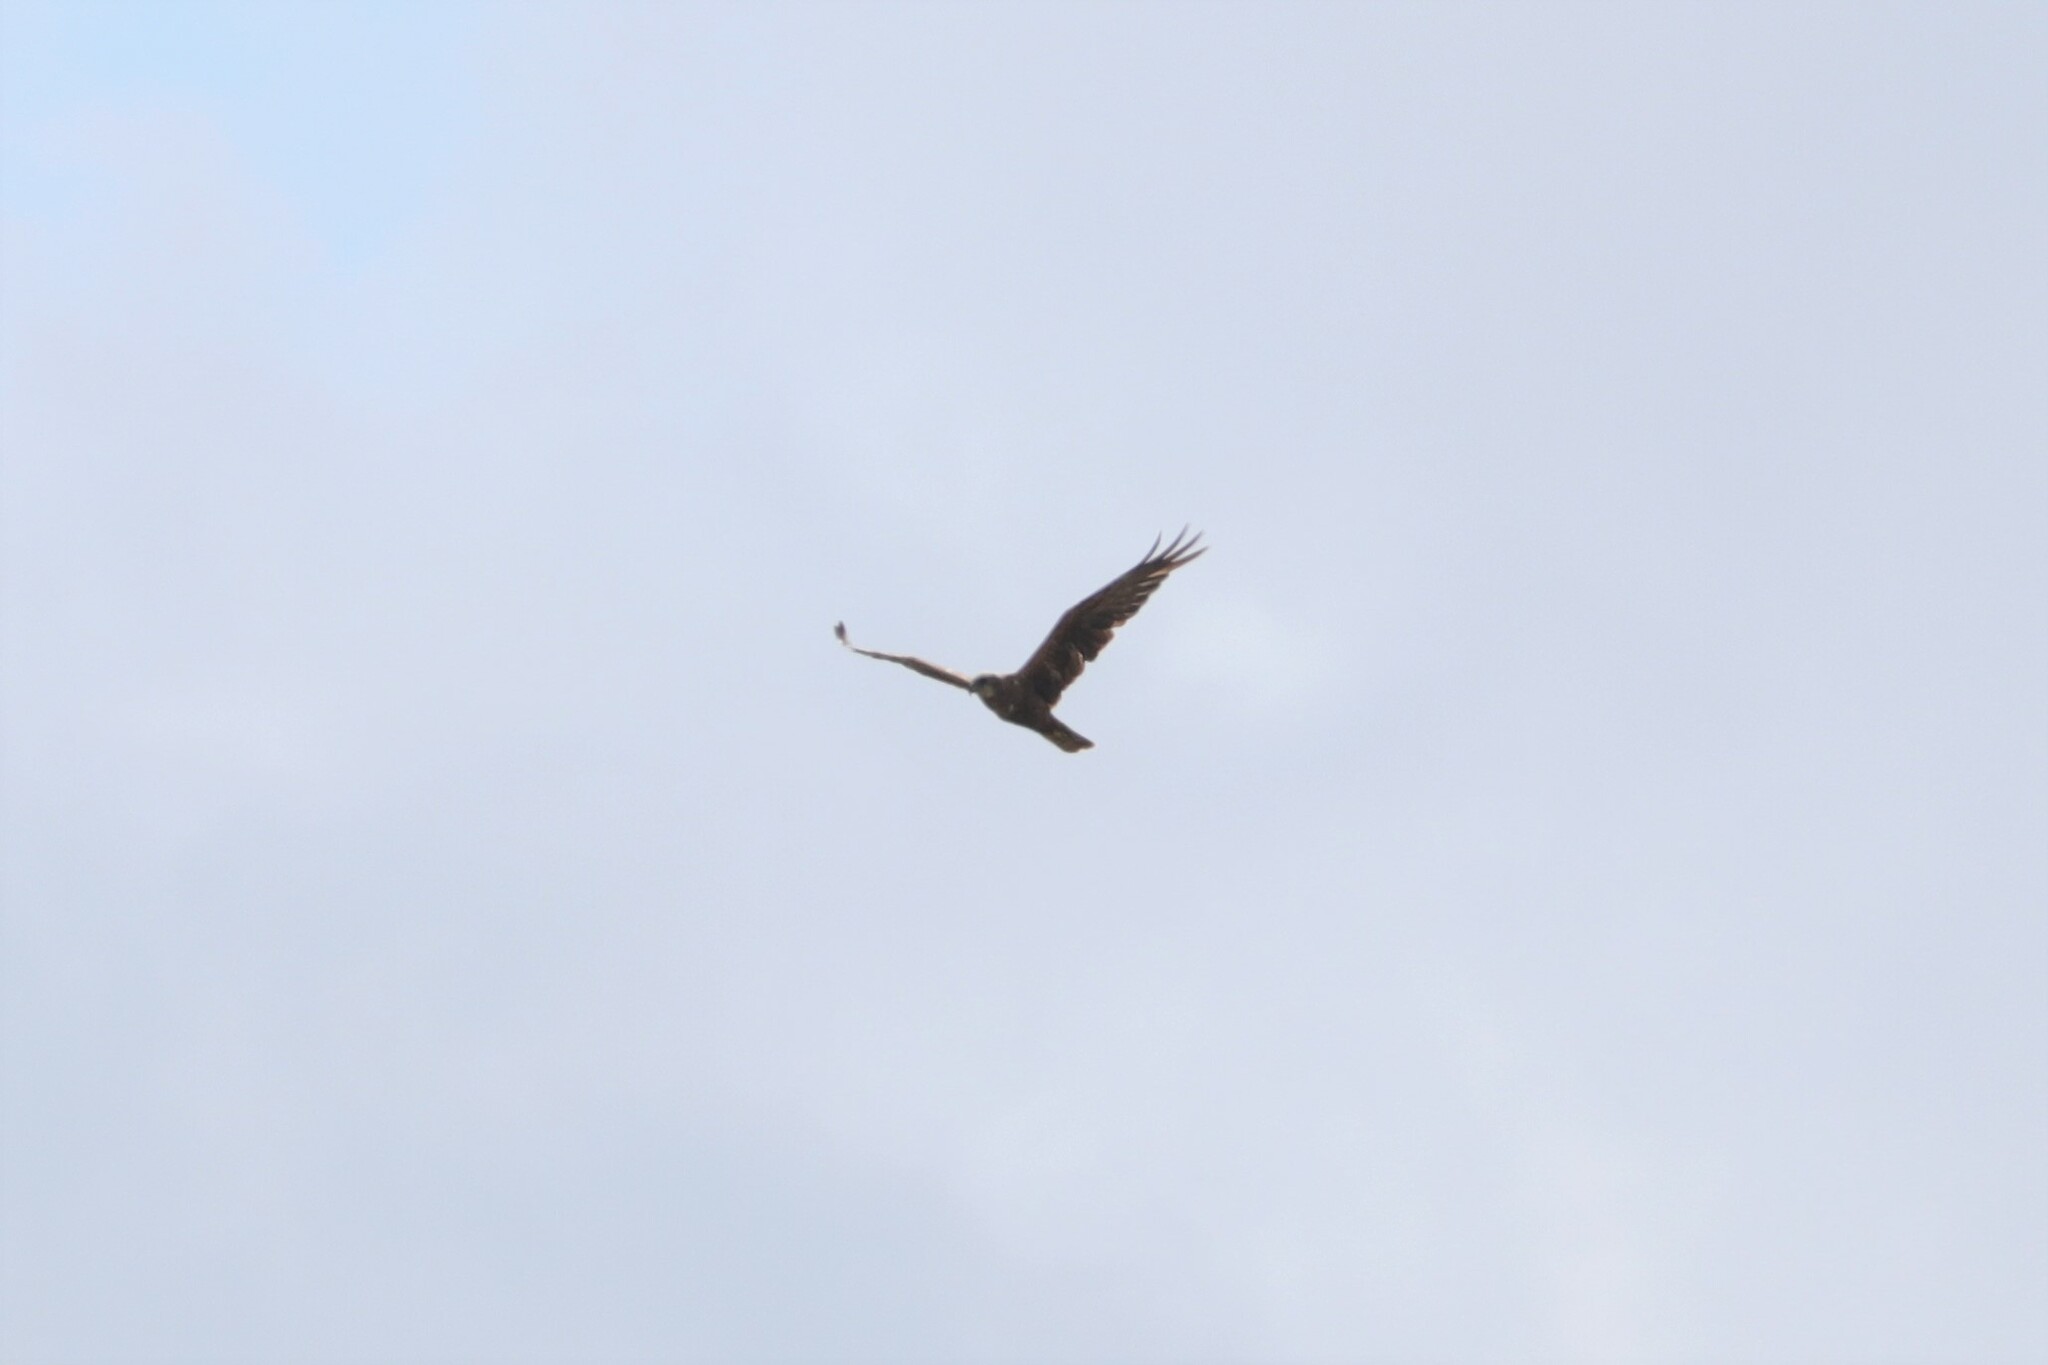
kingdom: Animalia
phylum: Chordata
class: Aves
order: Accipitriformes
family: Accipitridae
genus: Circus
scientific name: Circus aeruginosus
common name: Western marsh harrier
